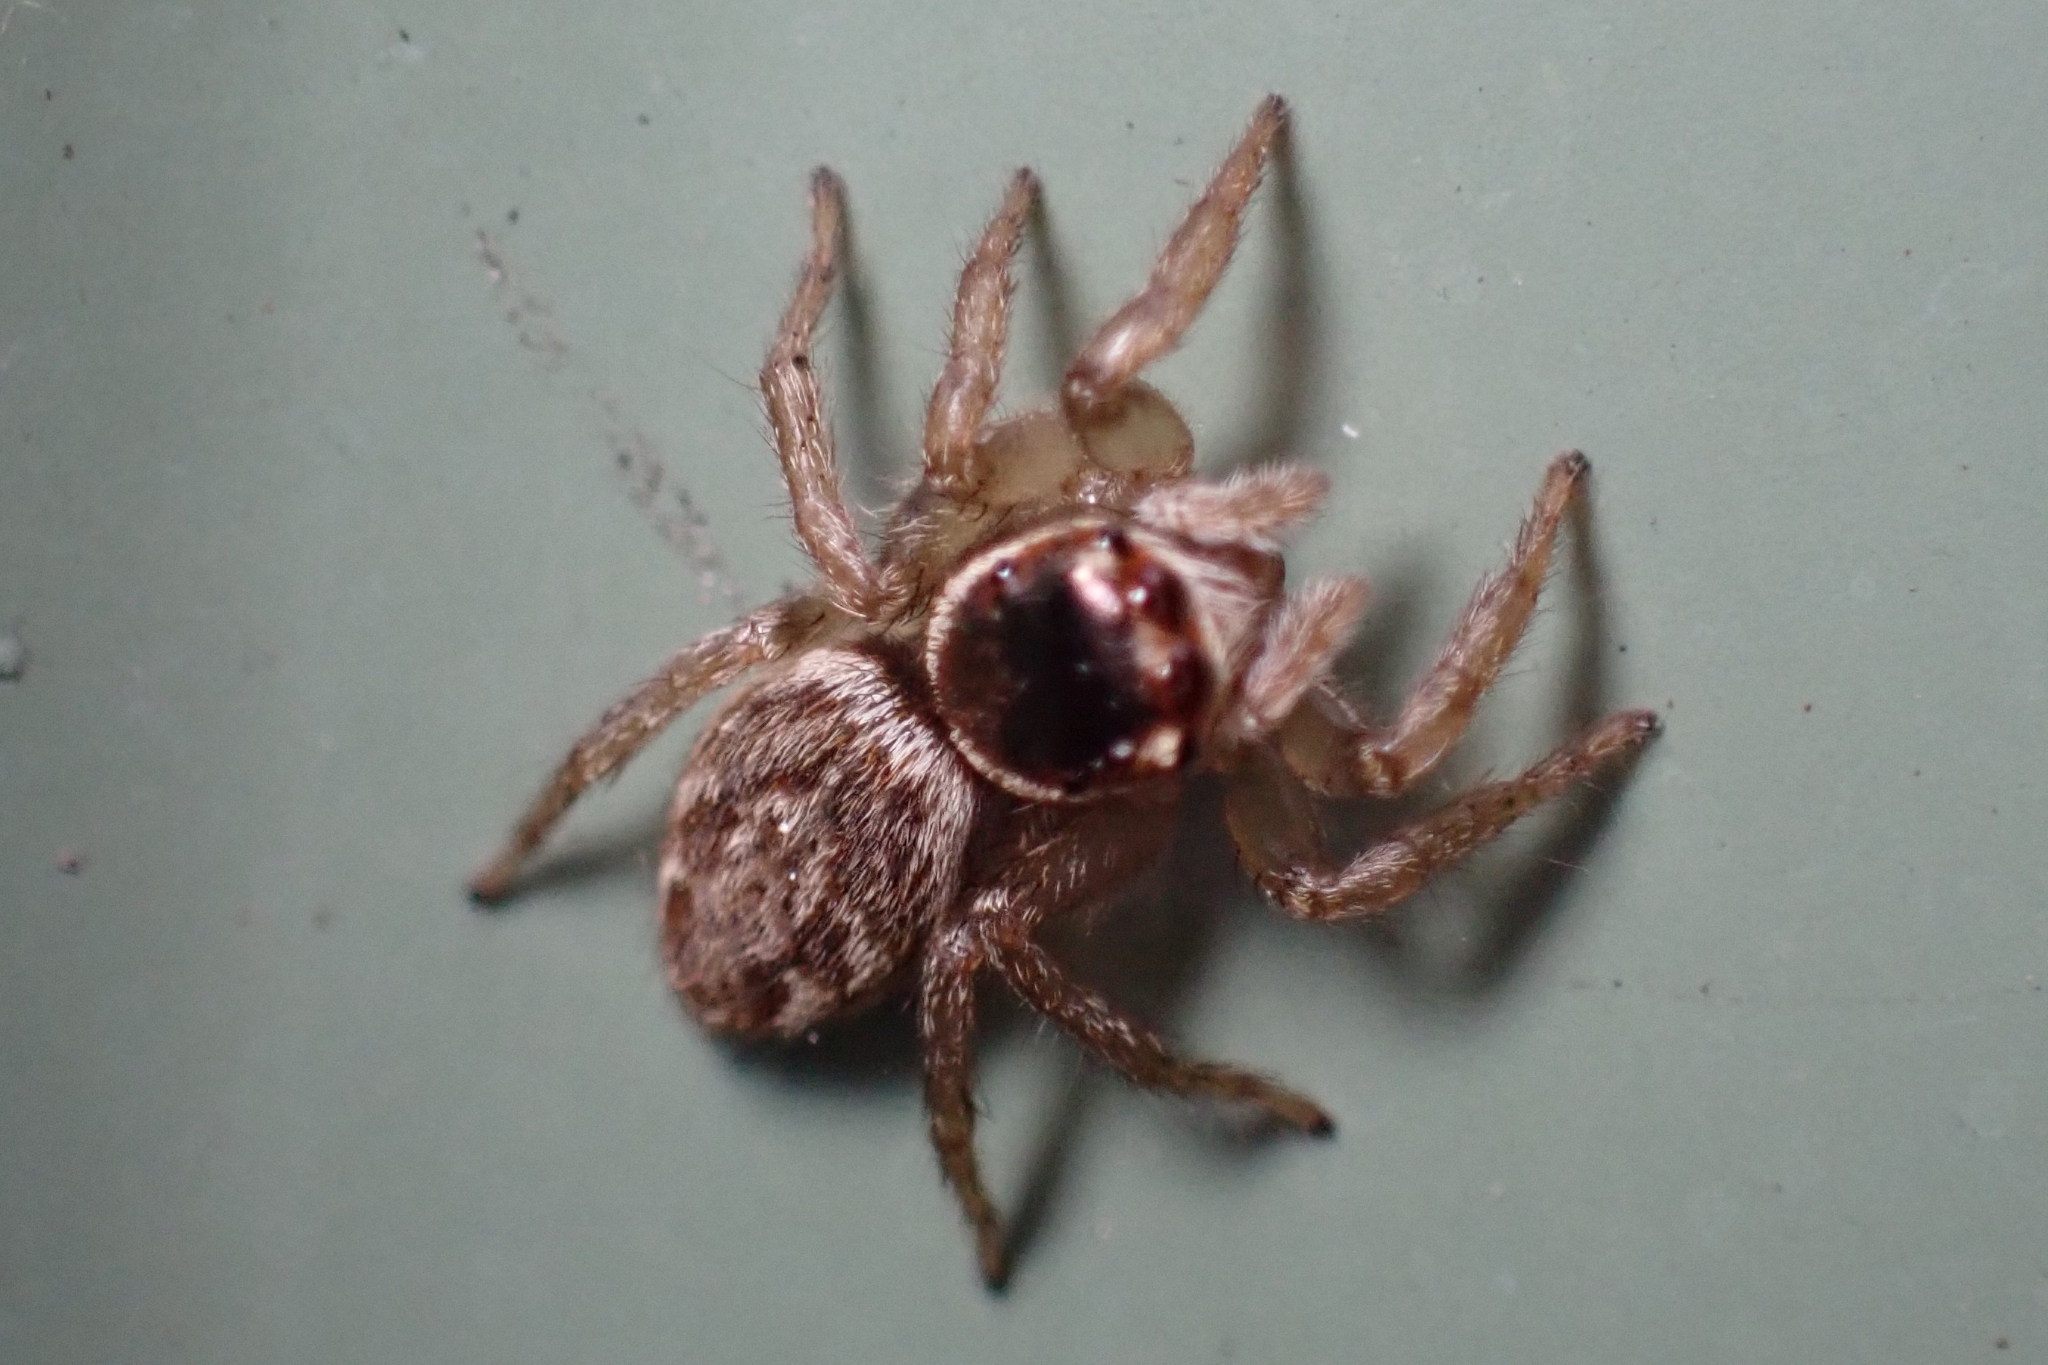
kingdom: Animalia
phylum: Arthropoda
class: Arachnida
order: Araneae
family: Salticidae
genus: Maratus
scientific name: Maratus griseus
